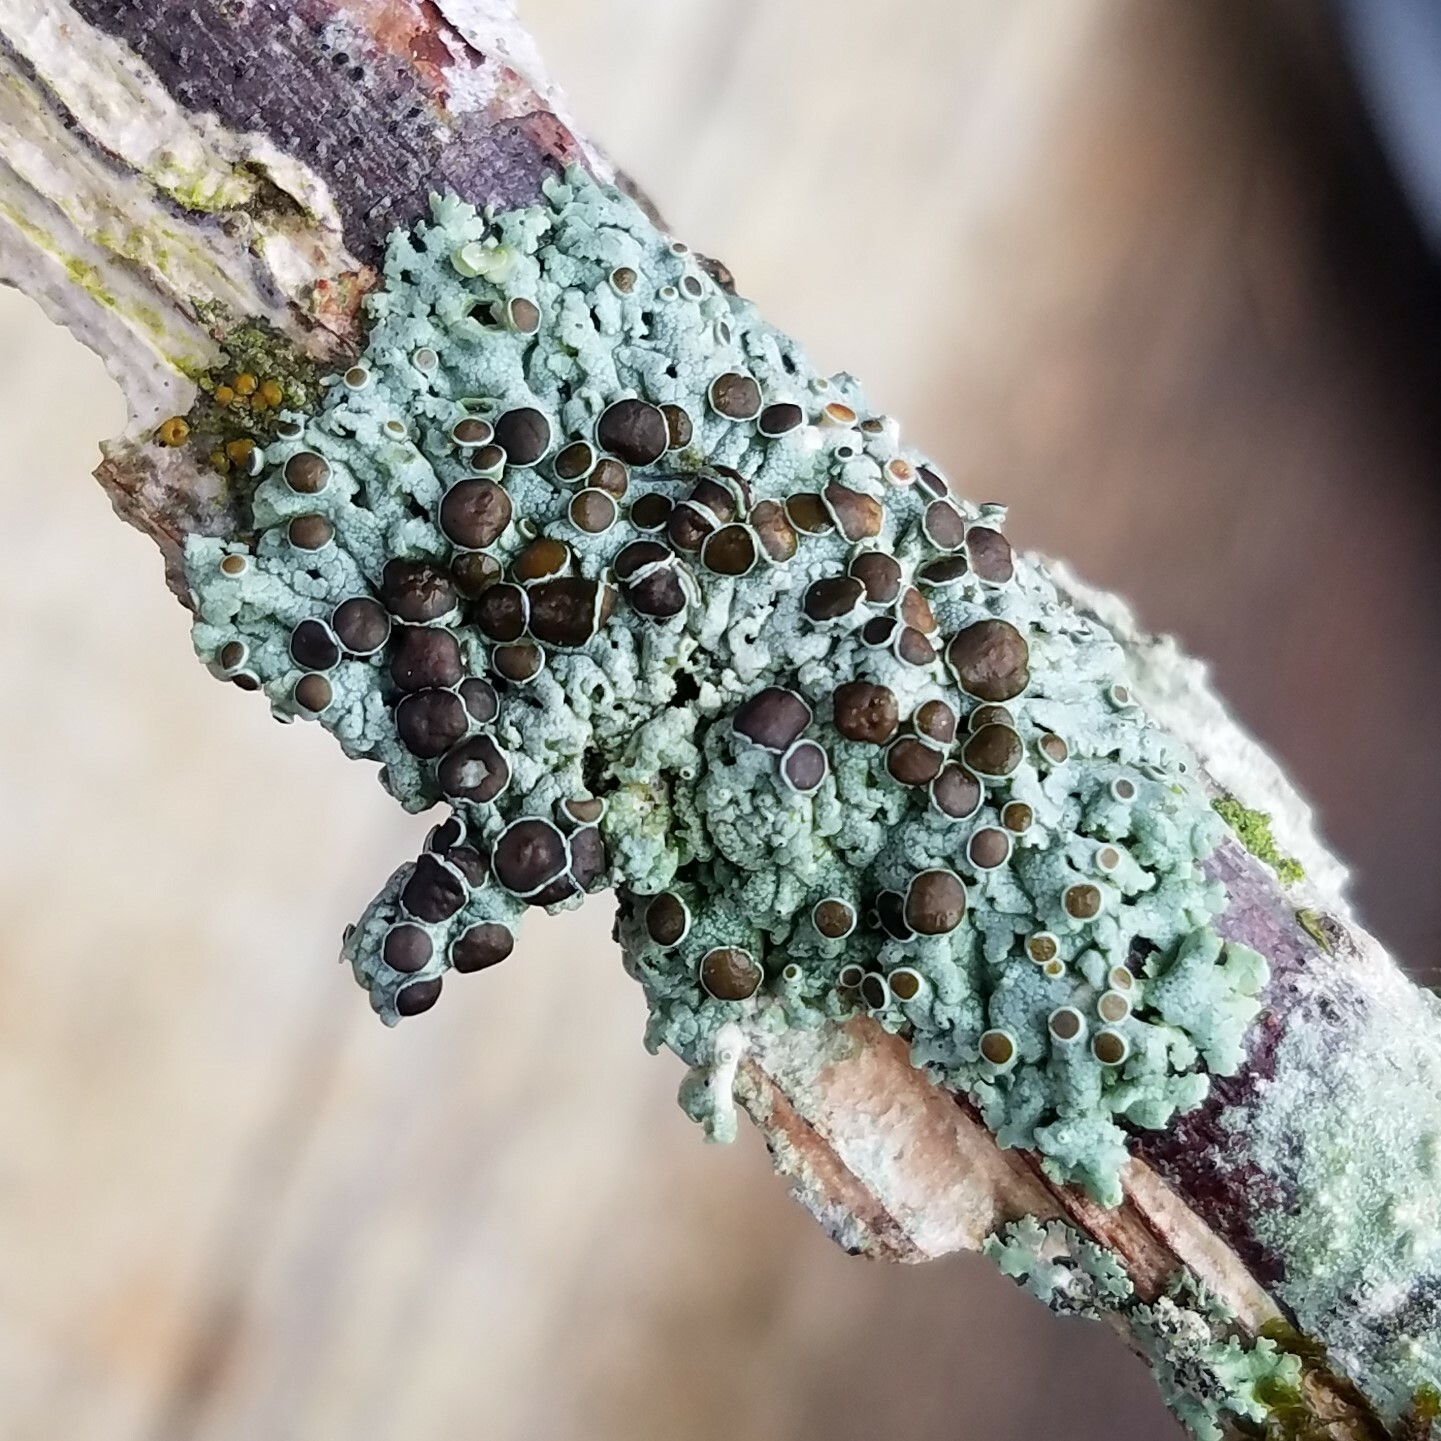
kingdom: Fungi
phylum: Ascomycota
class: Lecanoromycetes
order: Caliciales
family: Physciaceae
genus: Physcia
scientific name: Physcia pumilior
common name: Lesser gray legs
